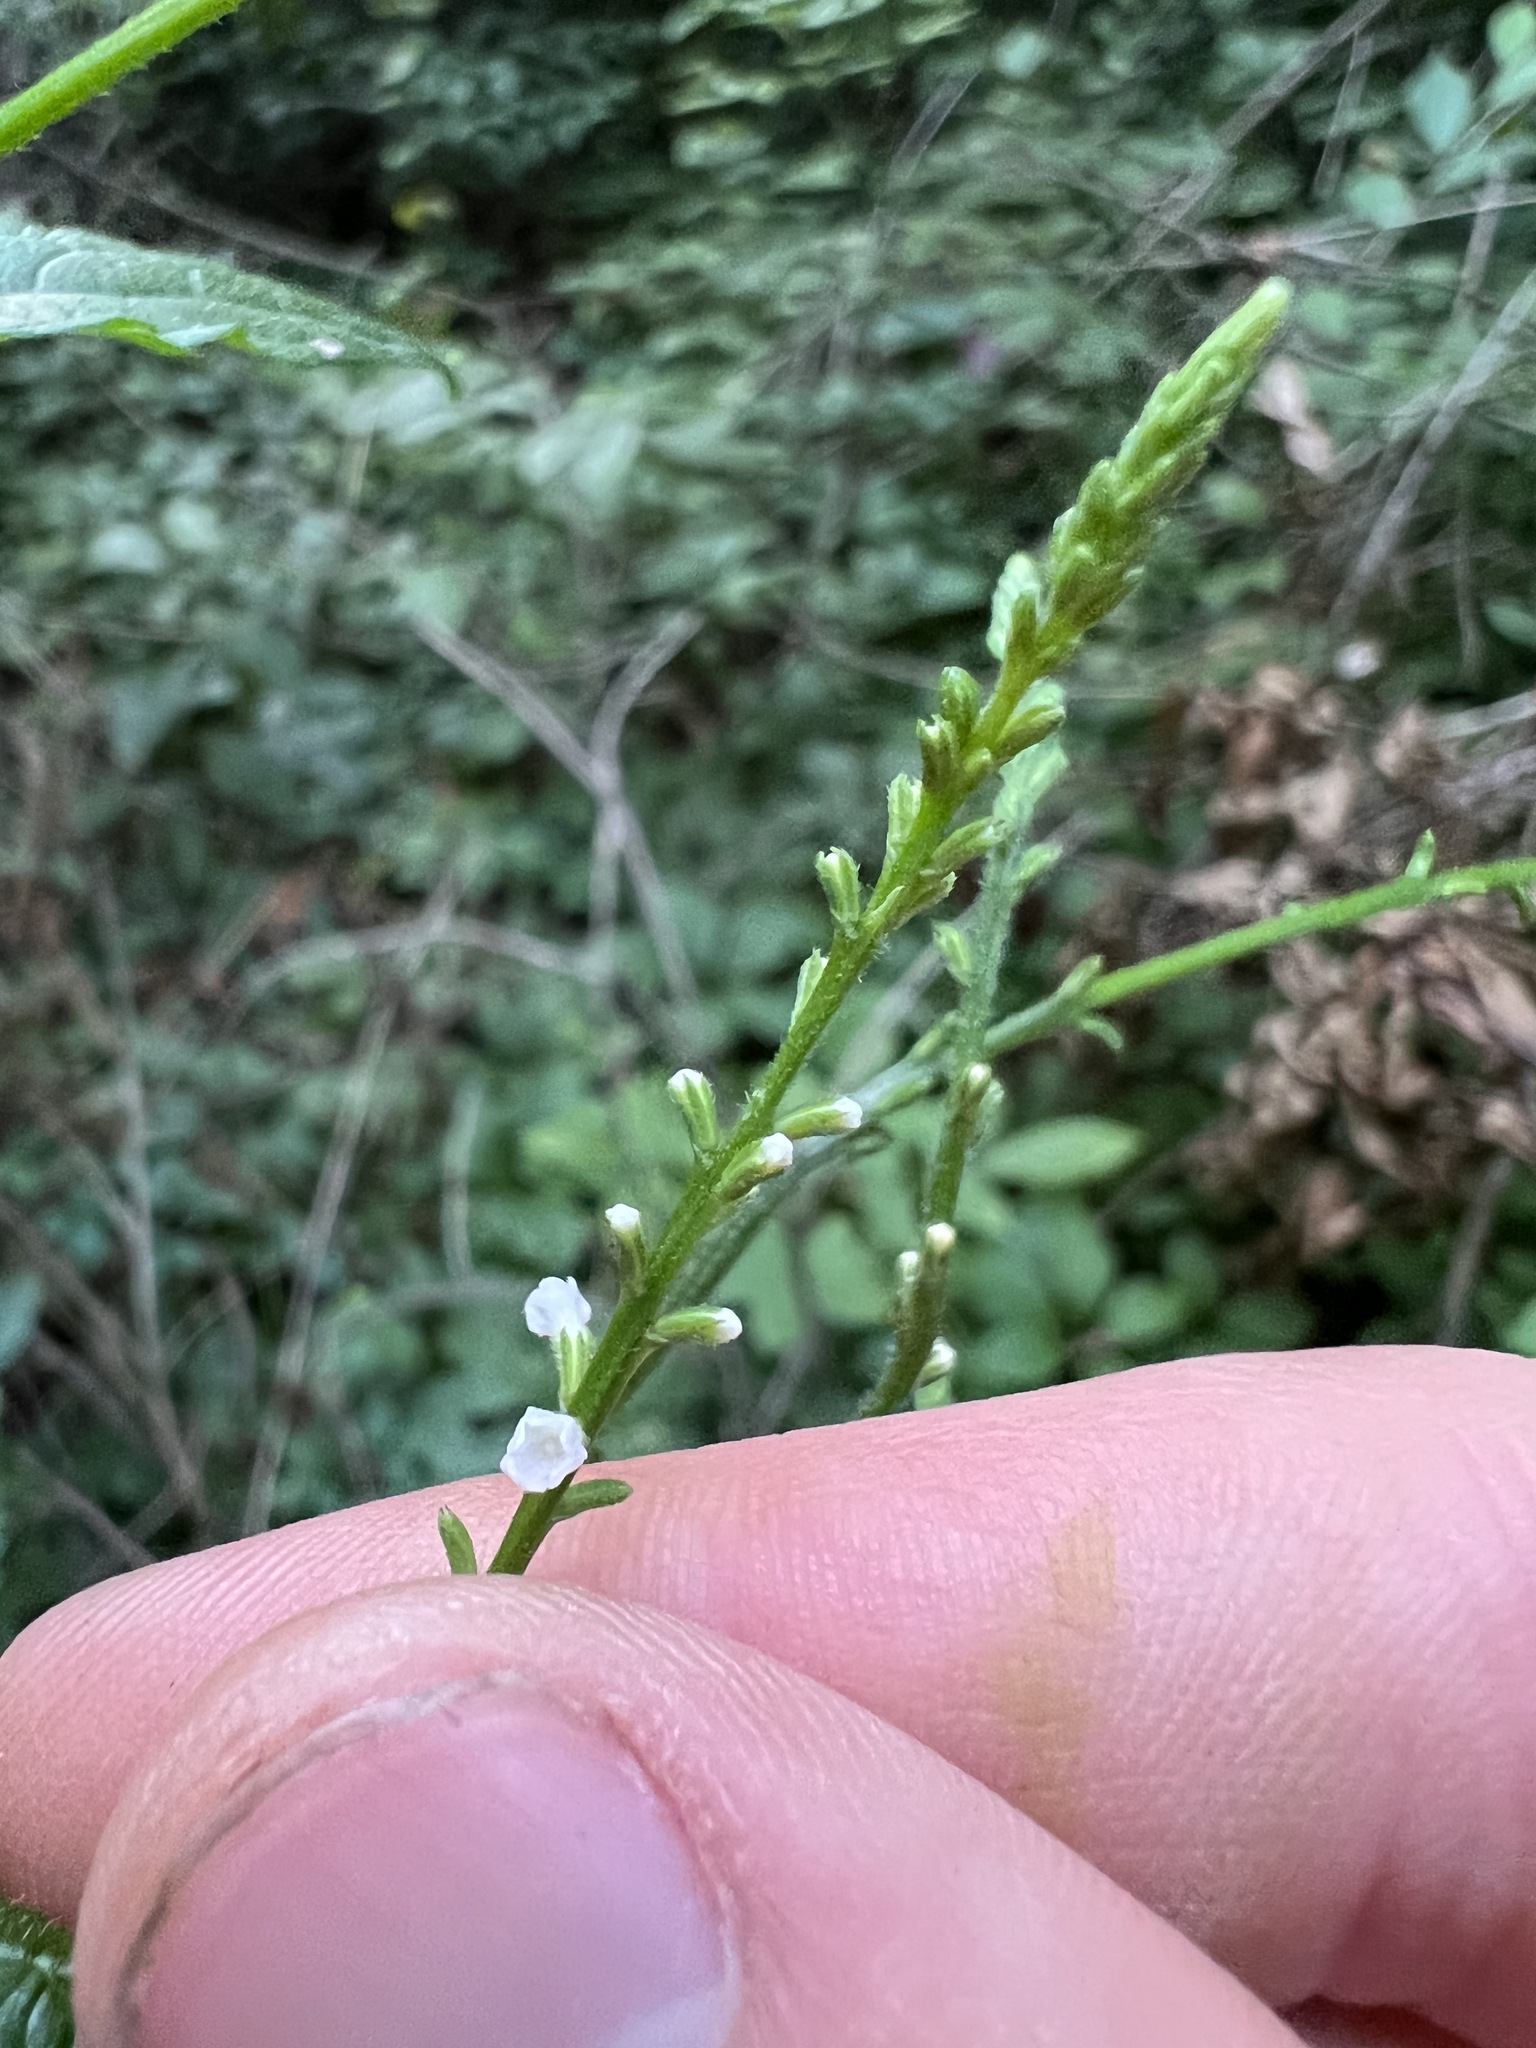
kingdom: Plantae
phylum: Tracheophyta
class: Magnoliopsida
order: Lamiales
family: Verbenaceae
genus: Verbena
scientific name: Verbena urticifolia
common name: Nettle-leaved vervain
